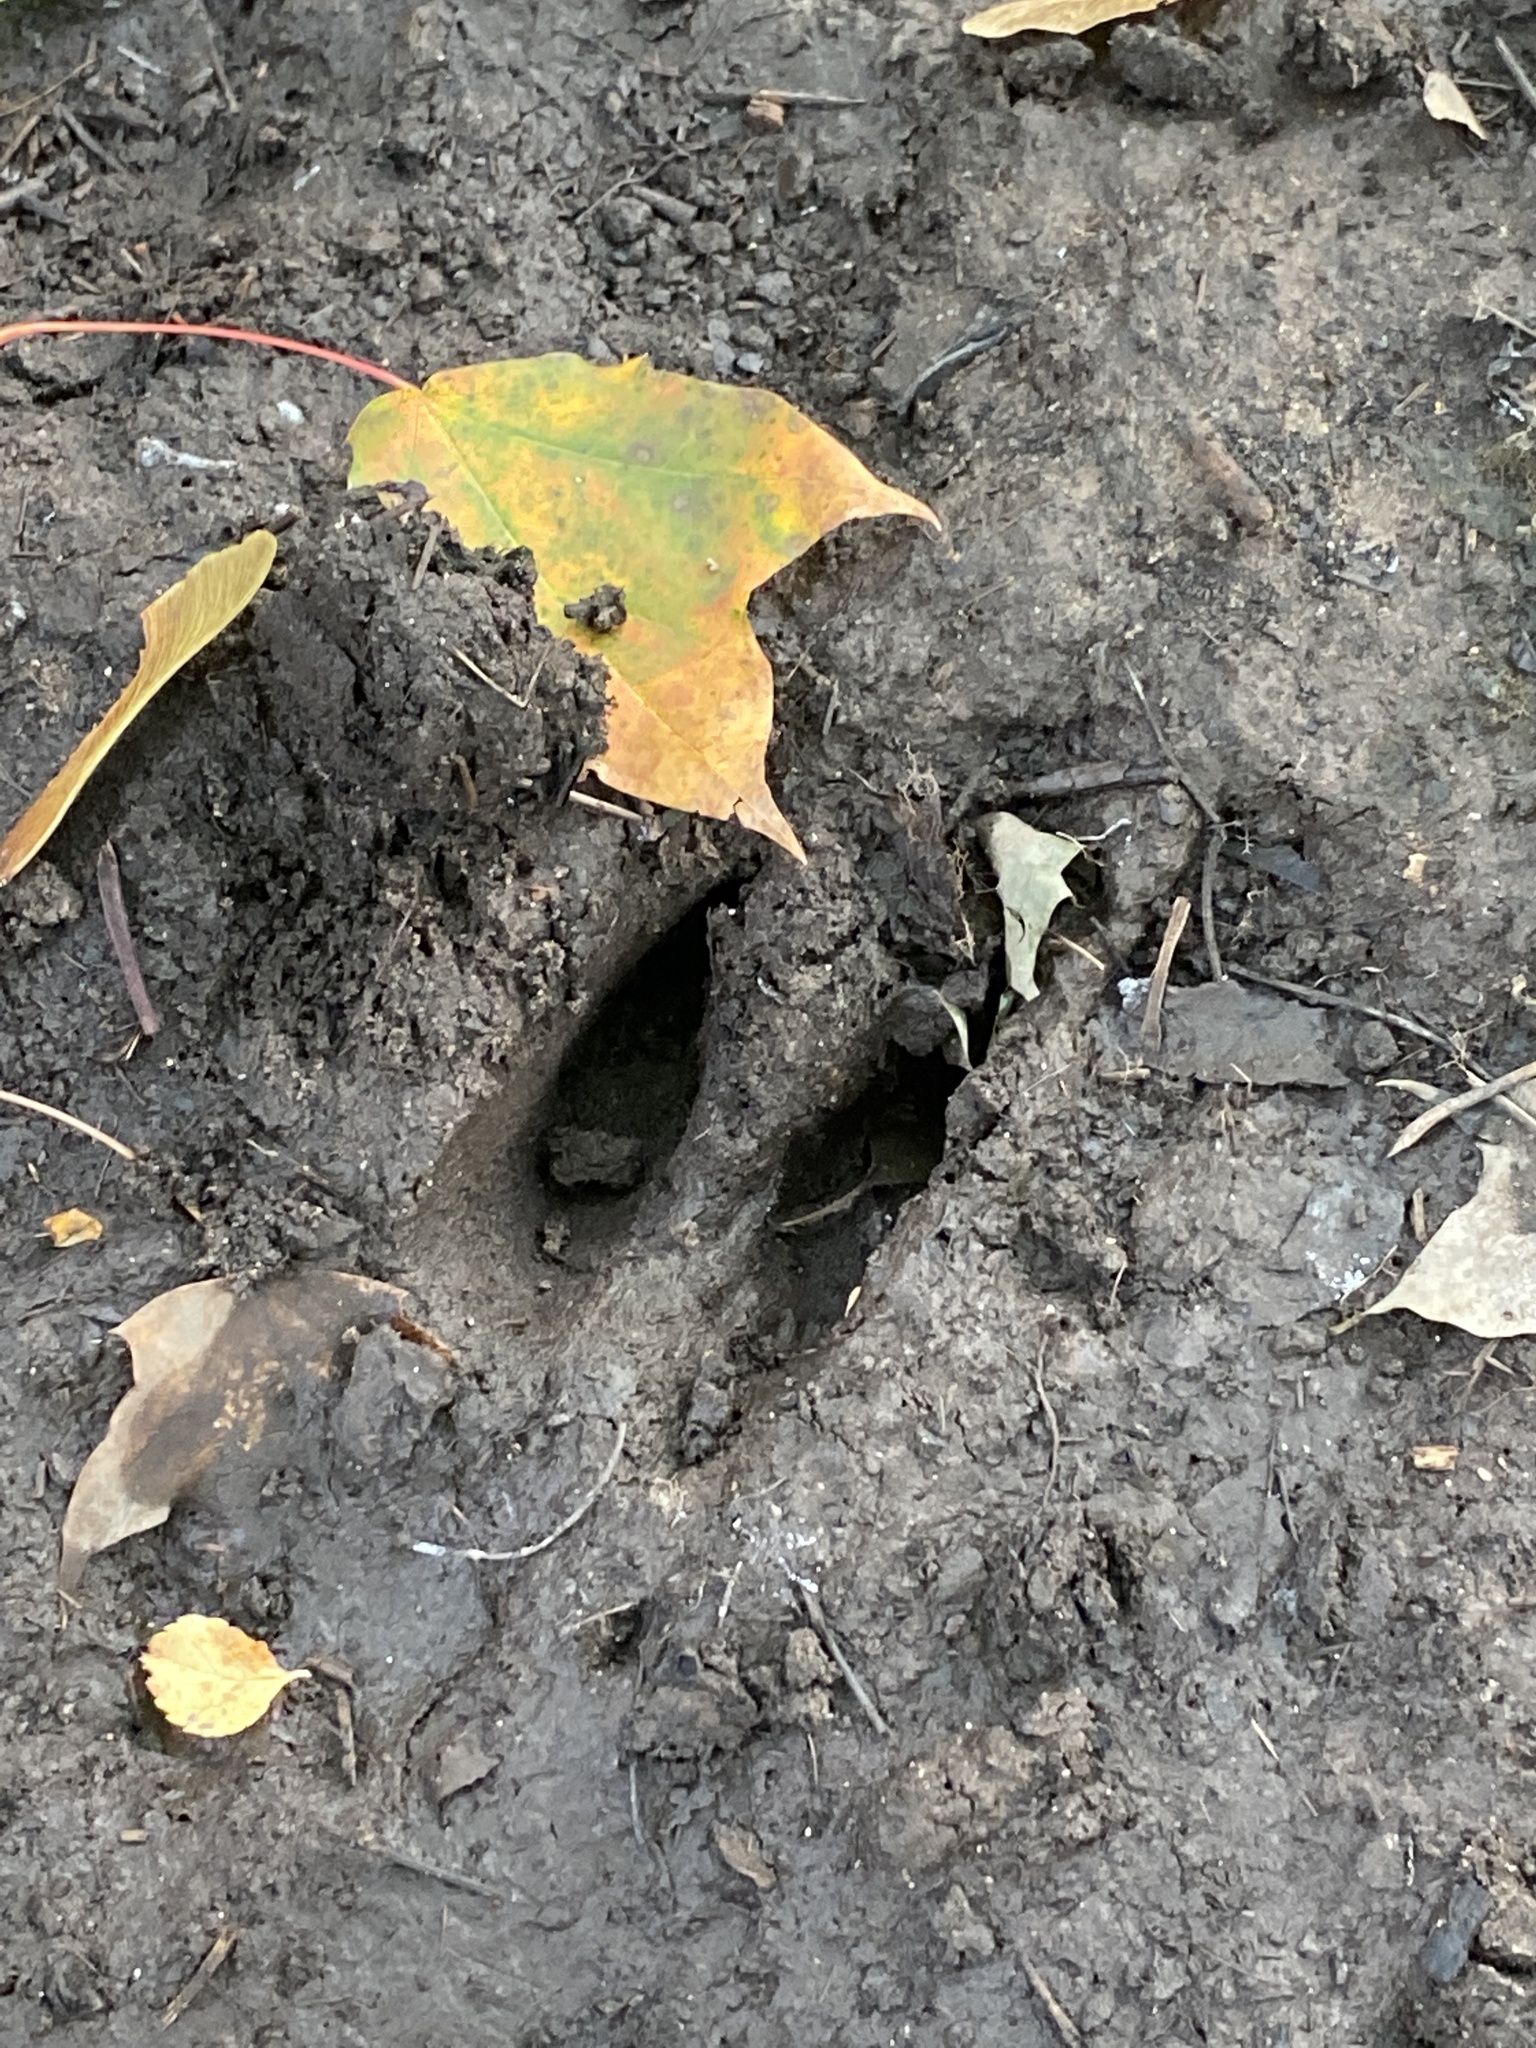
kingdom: Animalia
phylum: Chordata
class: Mammalia
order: Artiodactyla
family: Cervidae
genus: Odocoileus
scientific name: Odocoileus virginianus
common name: White-tailed deer
